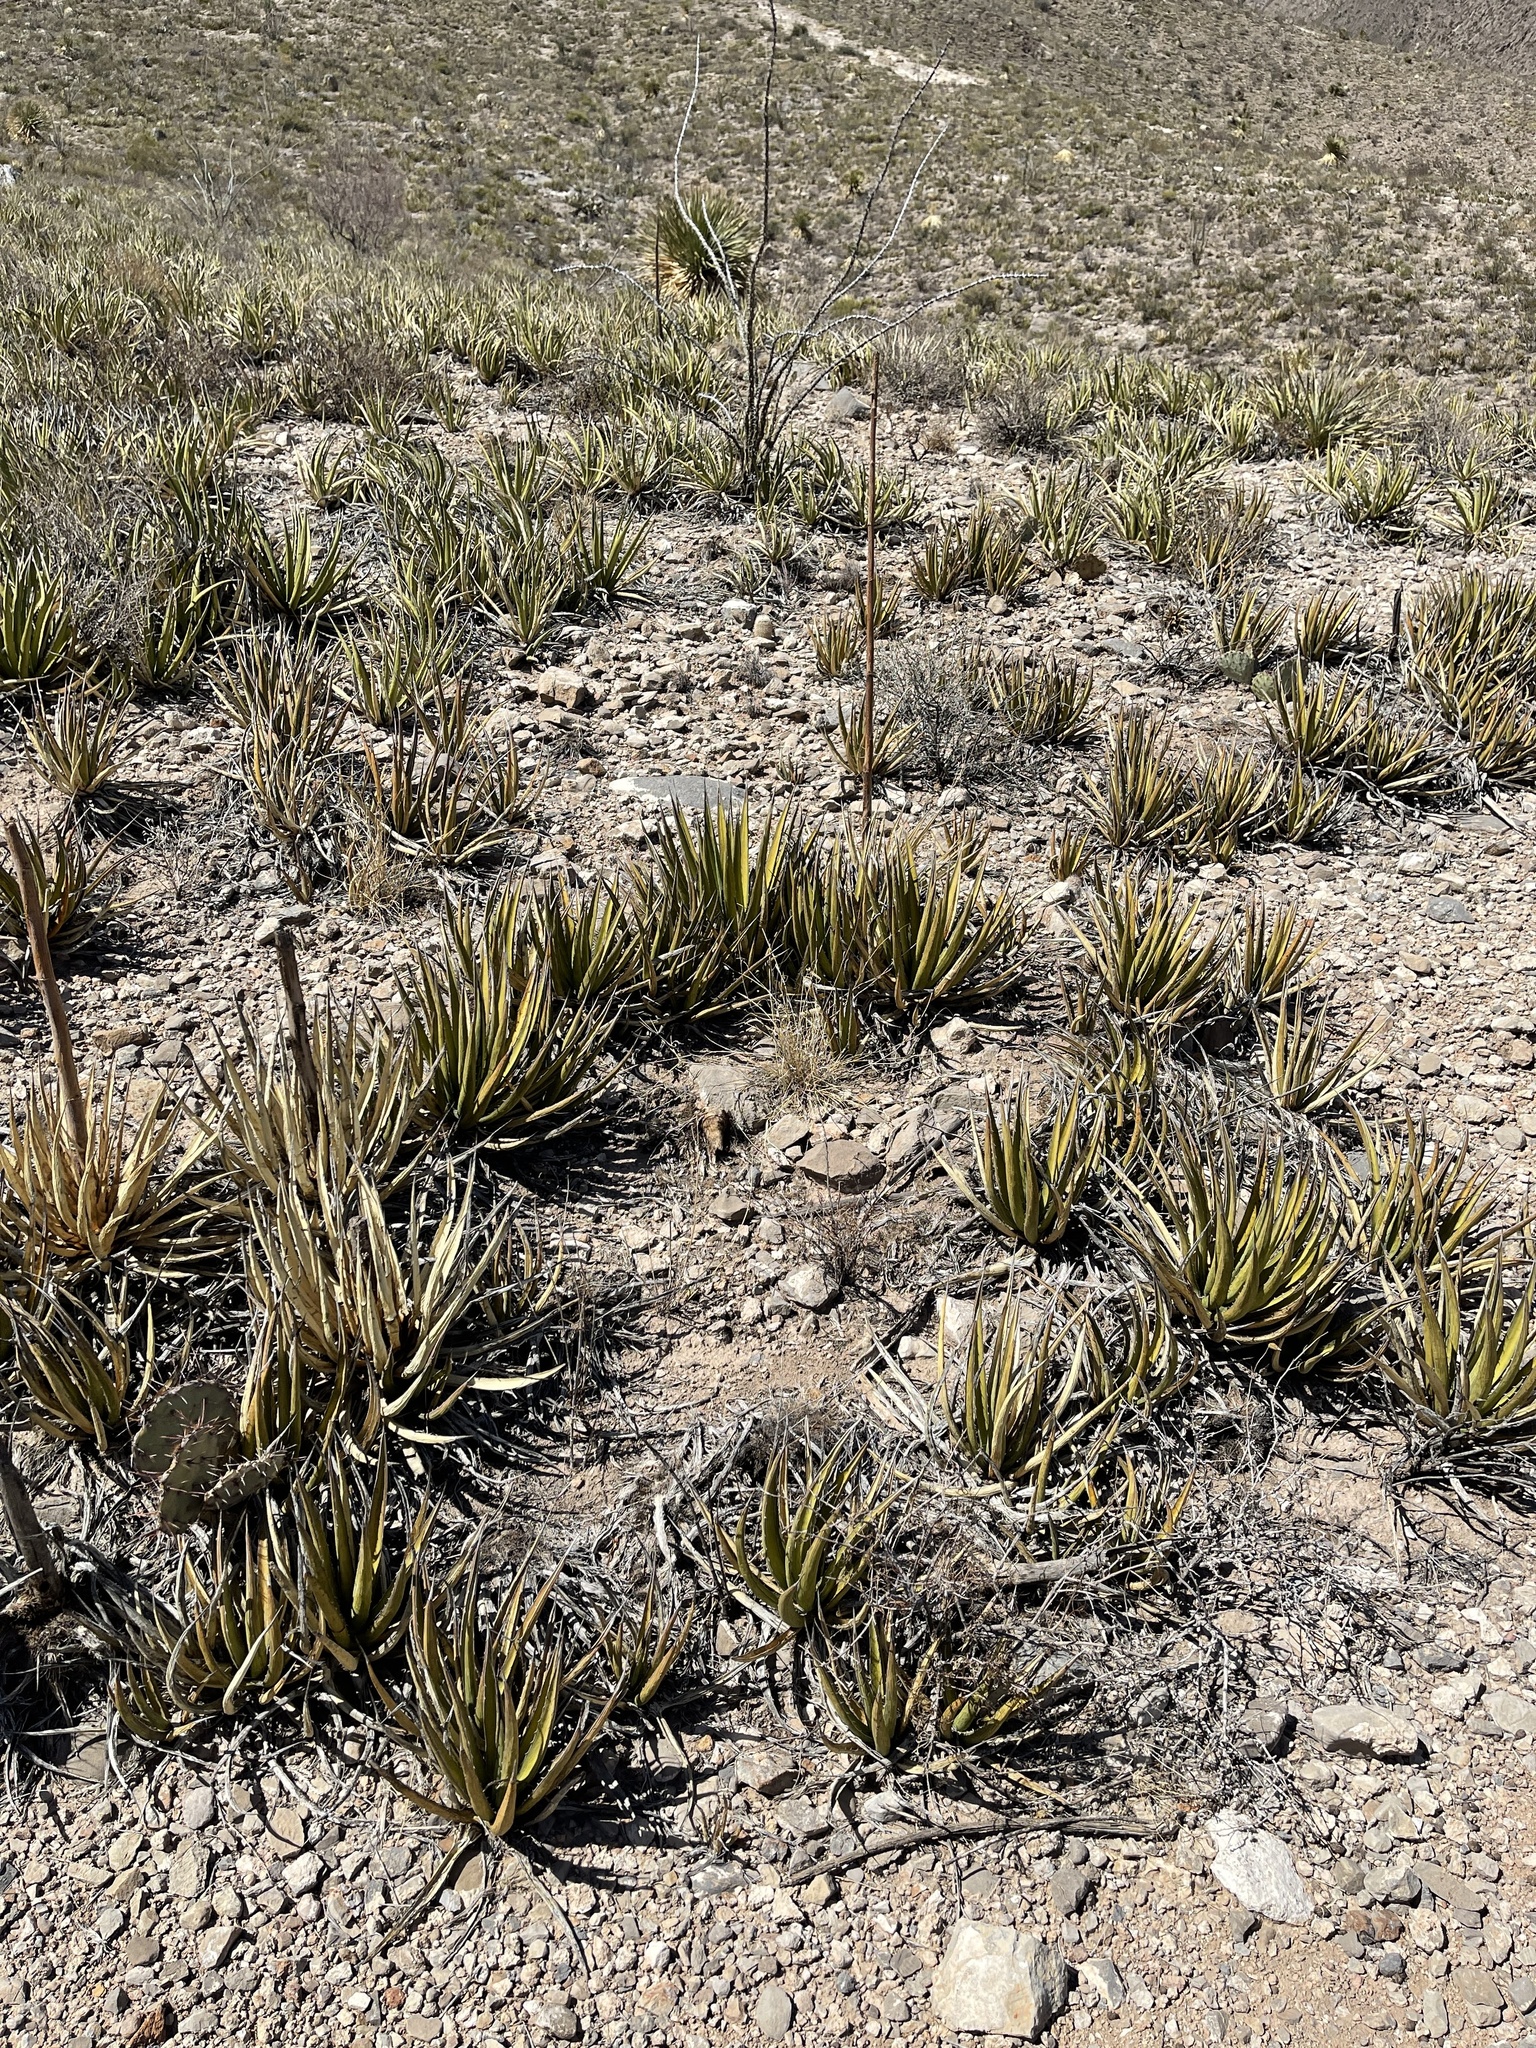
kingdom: Plantae
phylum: Tracheophyta
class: Liliopsida
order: Asparagales
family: Asparagaceae
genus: Agave
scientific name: Agave lechuguilla
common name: Lecheguilla agave
